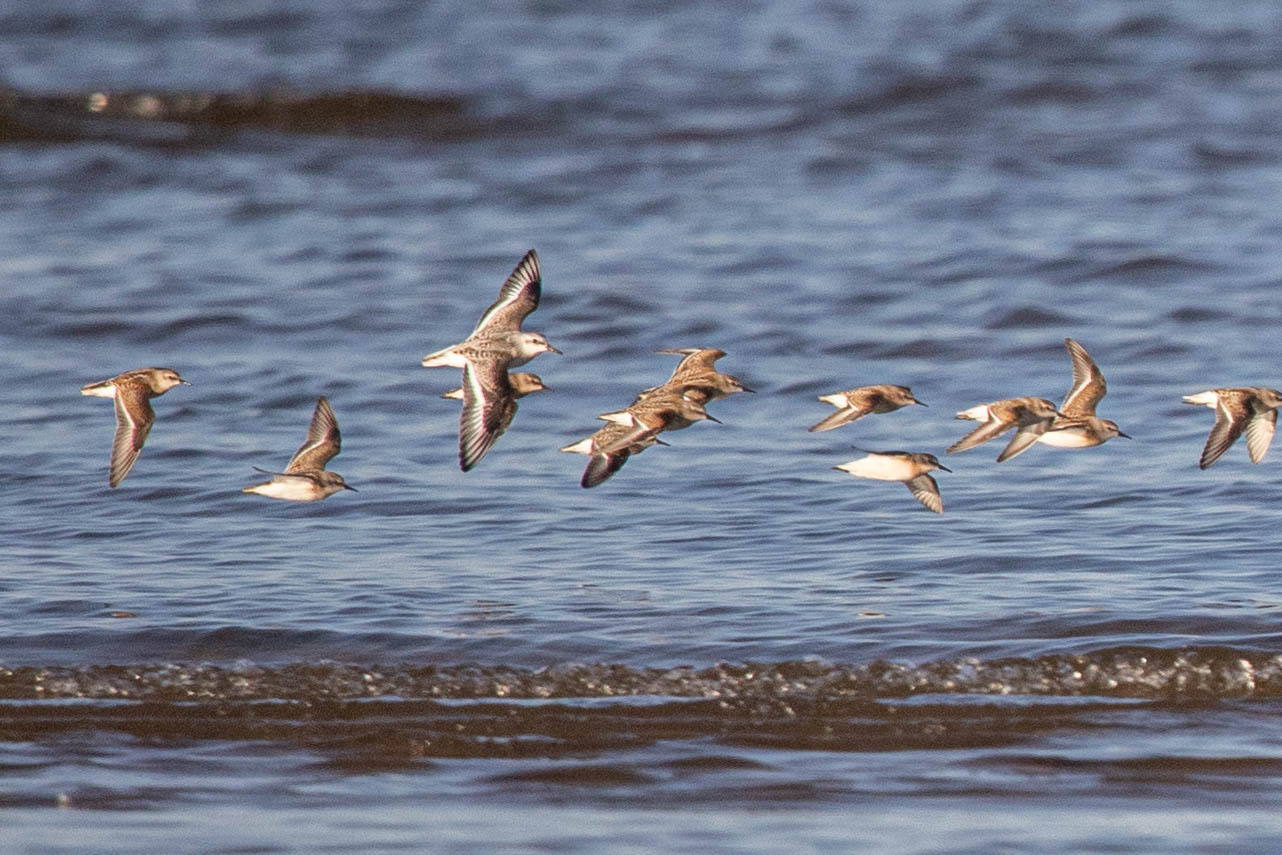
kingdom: Animalia
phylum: Chordata
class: Aves
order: Charadriiformes
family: Scolopacidae
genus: Calidris
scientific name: Calidris alba
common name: Sanderling
